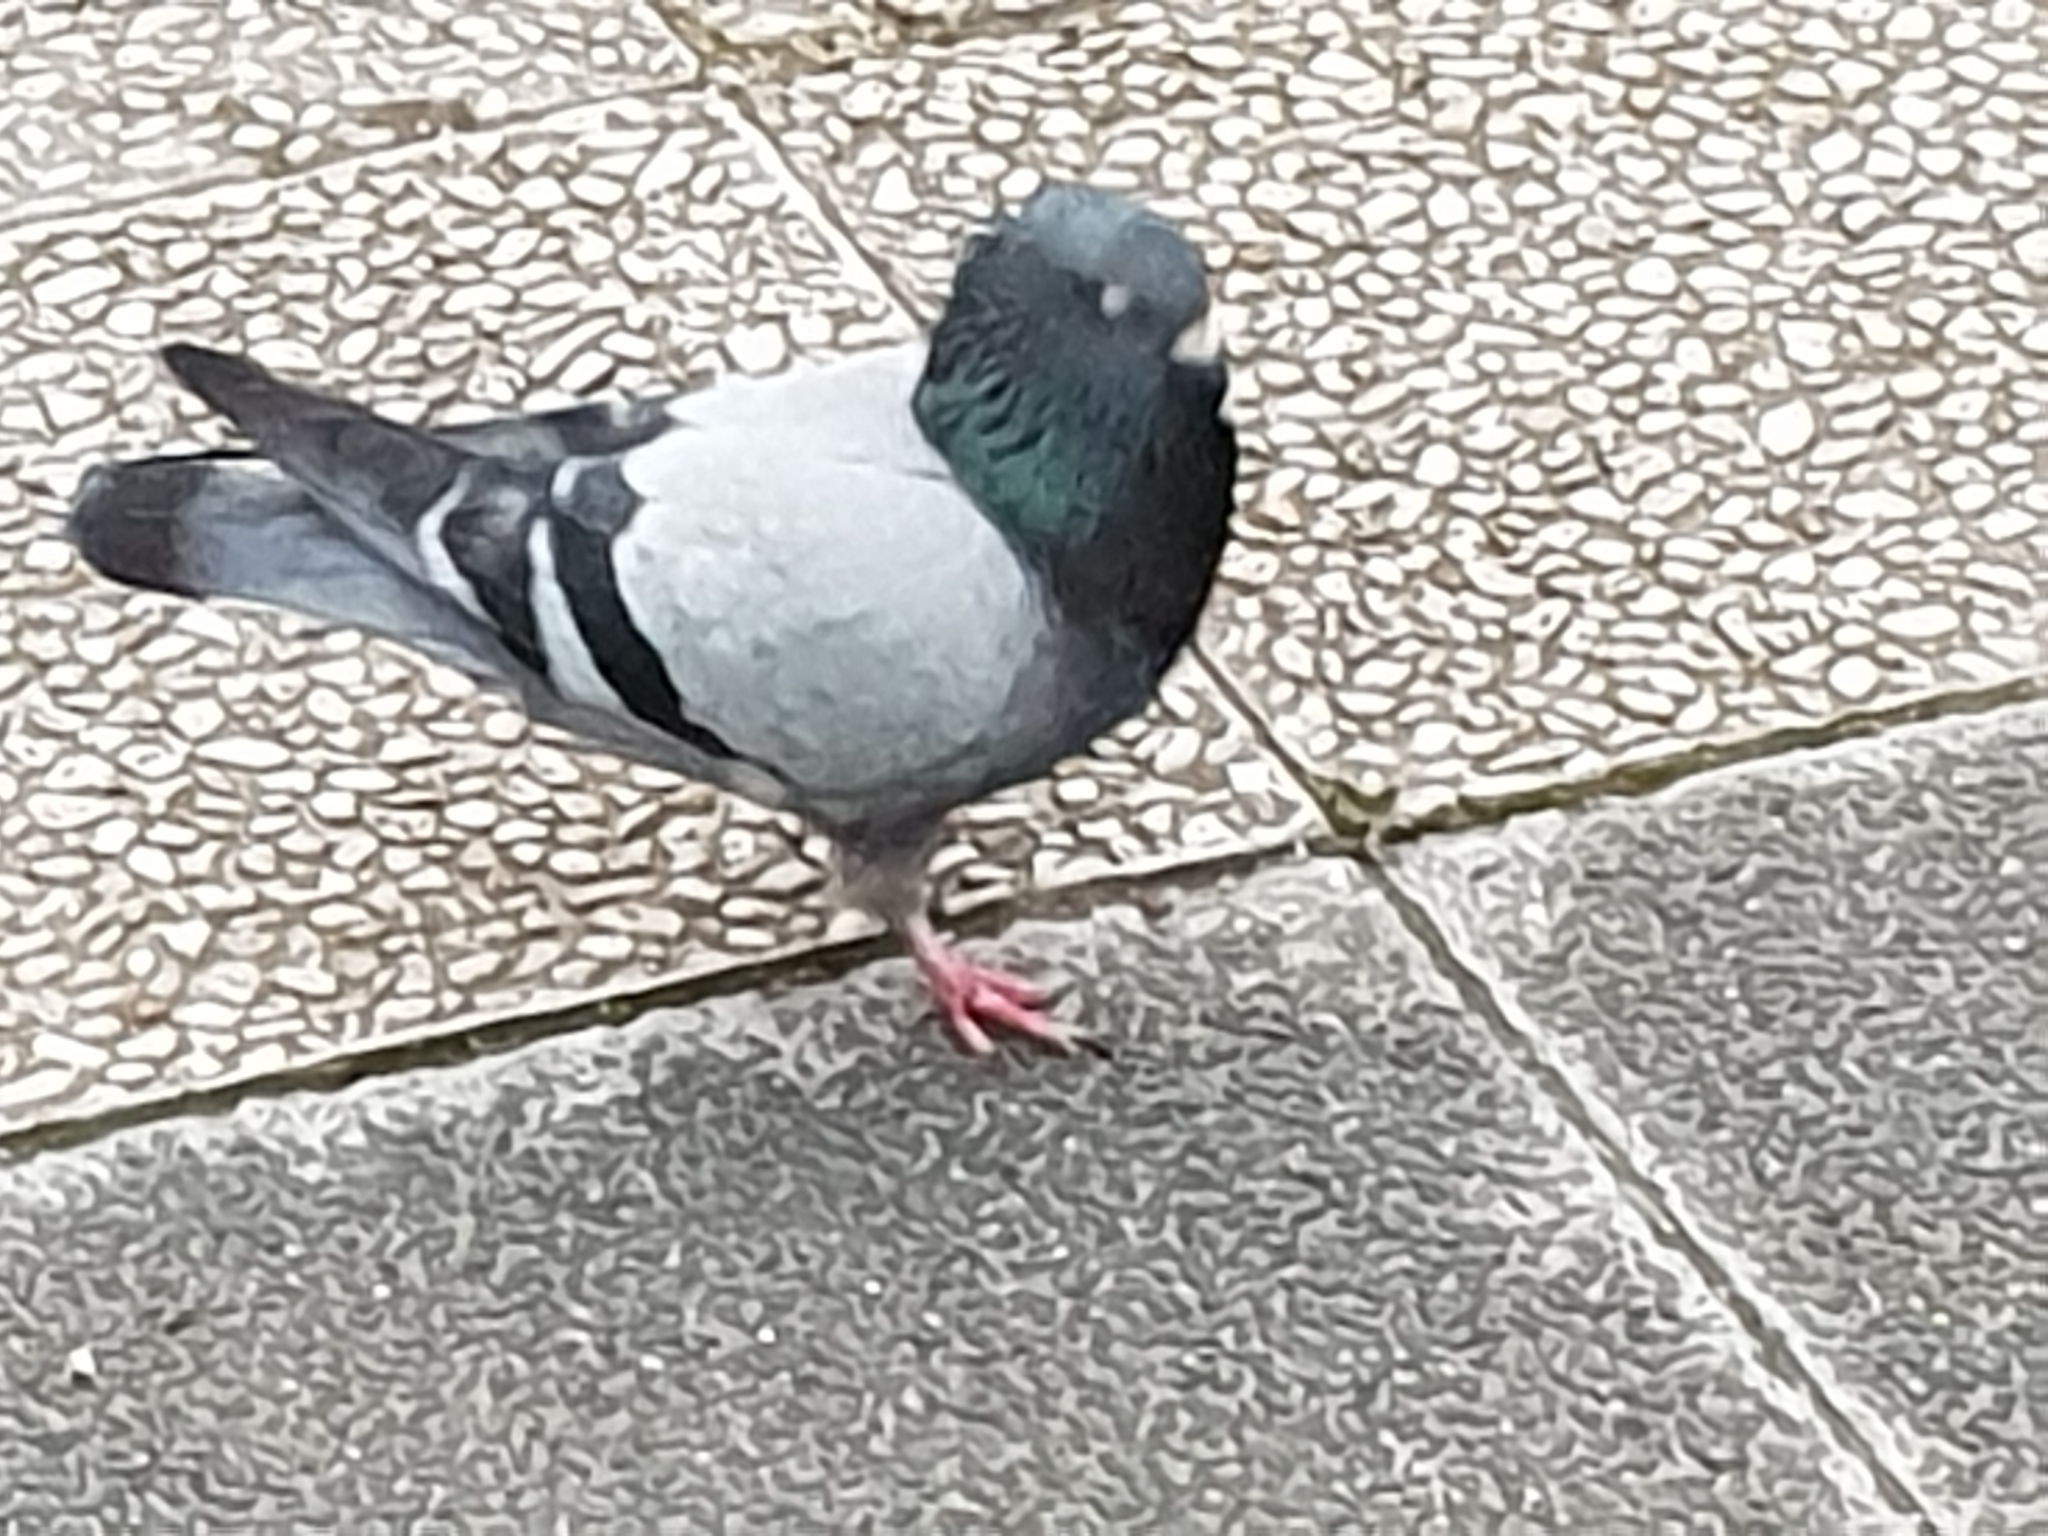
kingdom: Animalia
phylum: Chordata
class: Aves
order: Columbiformes
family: Columbidae
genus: Columba
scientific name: Columba livia
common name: Rock pigeon
